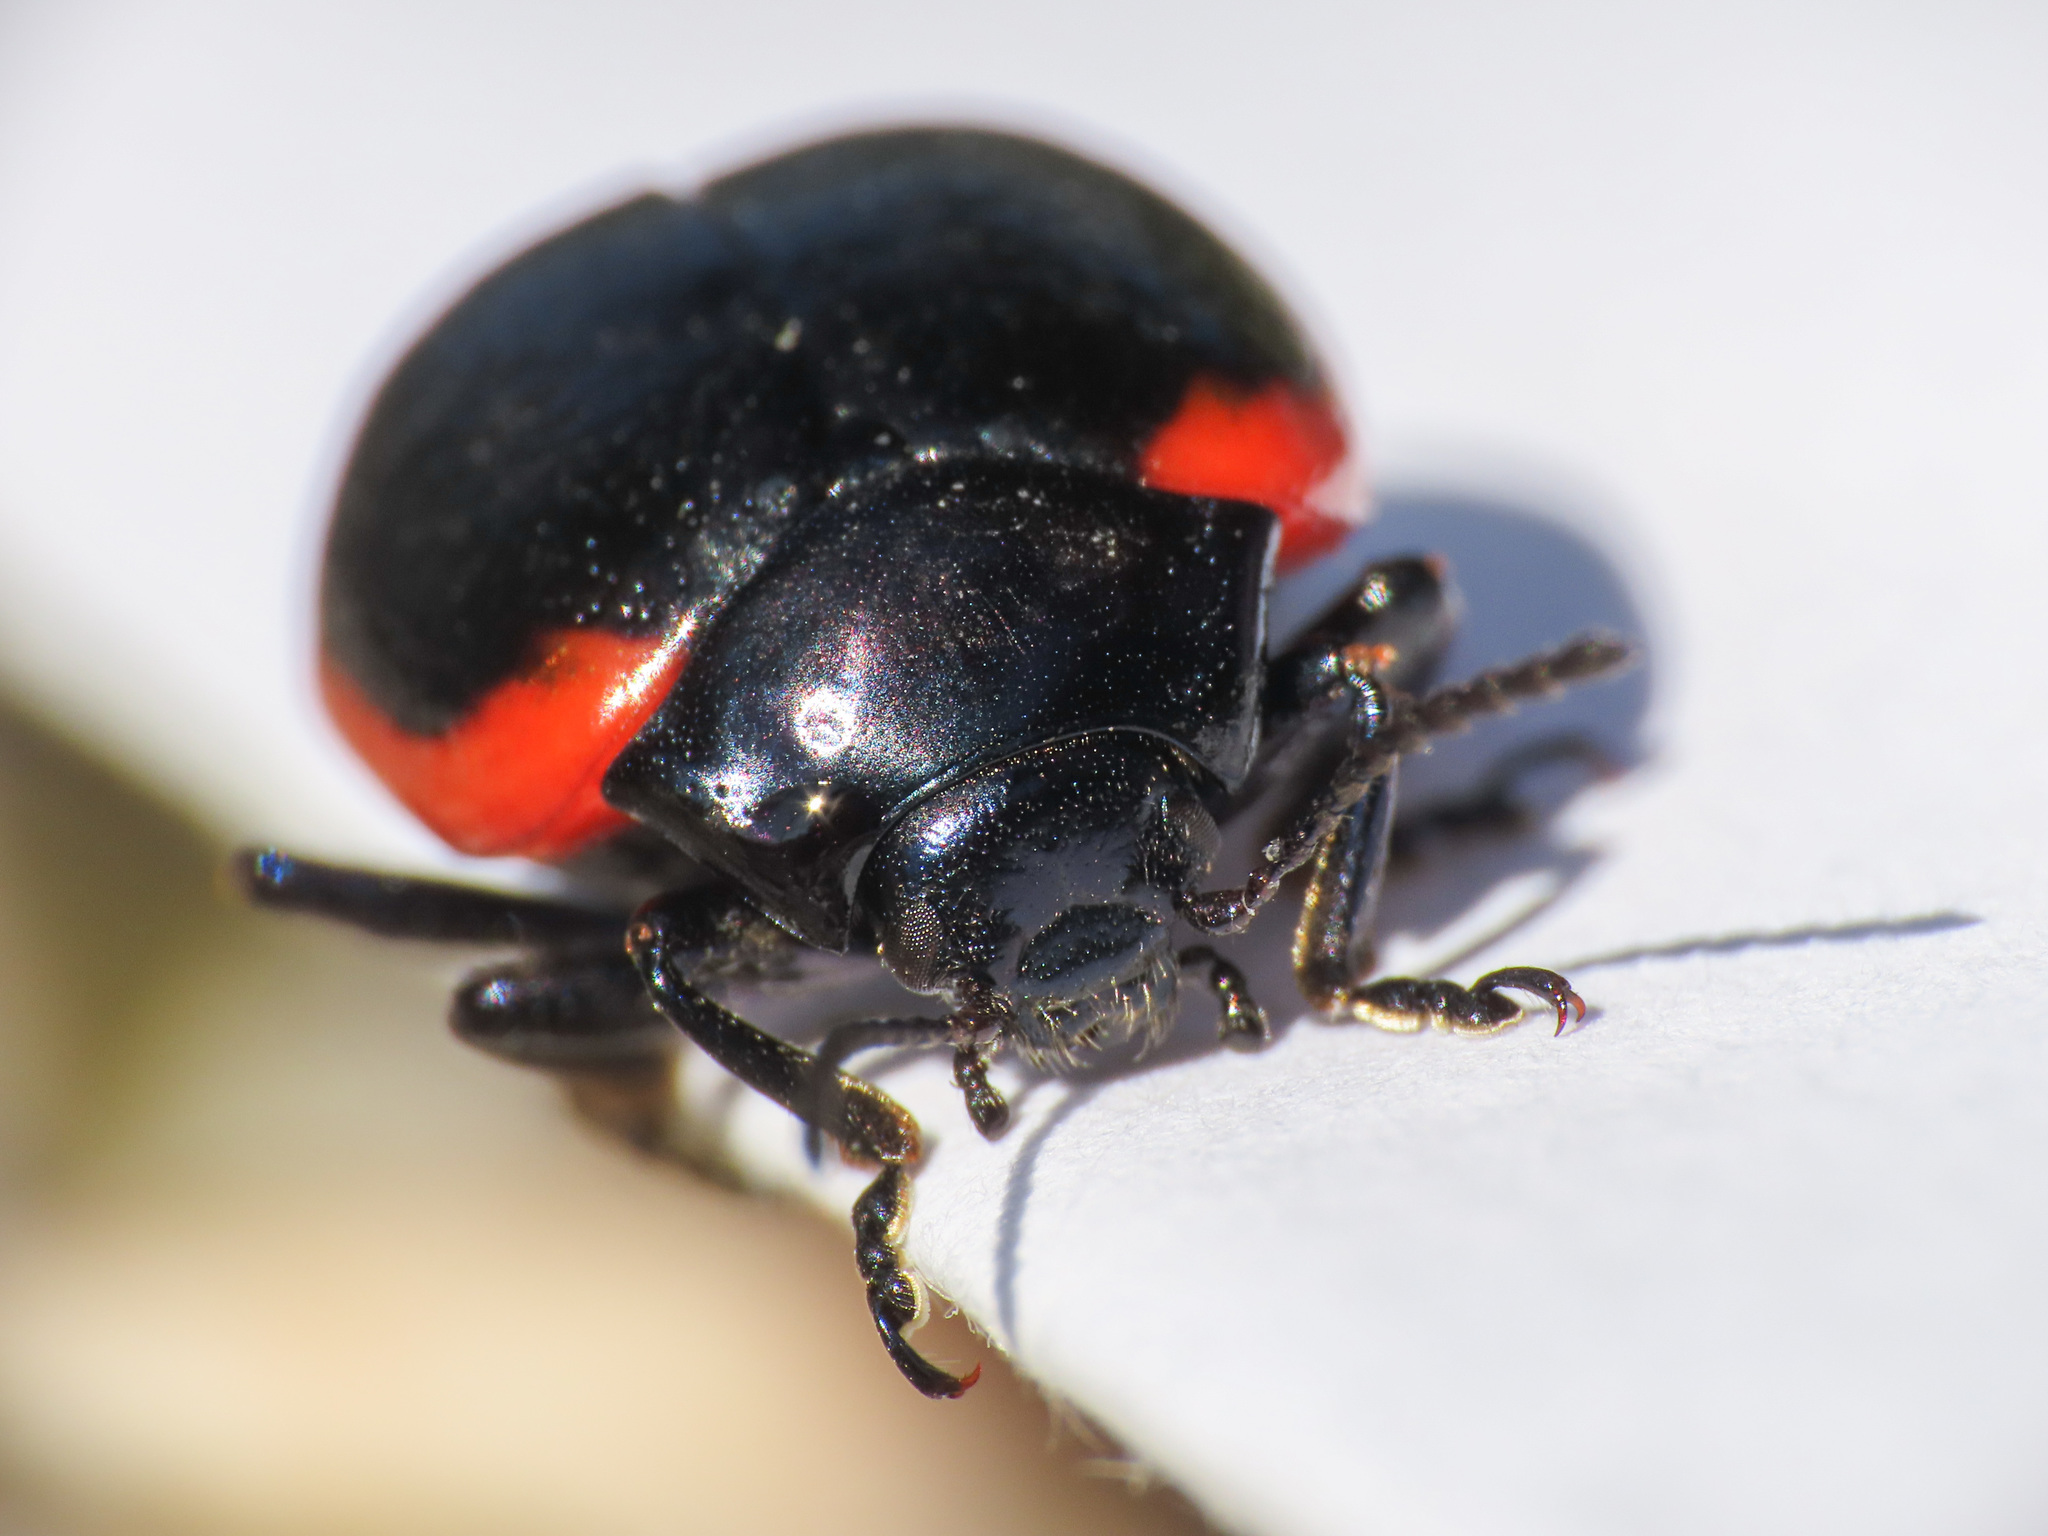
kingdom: Animalia
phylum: Arthropoda
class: Insecta
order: Coleoptera
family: Chrysomelidae
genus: Chrysolina
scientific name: Chrysolina rossia
